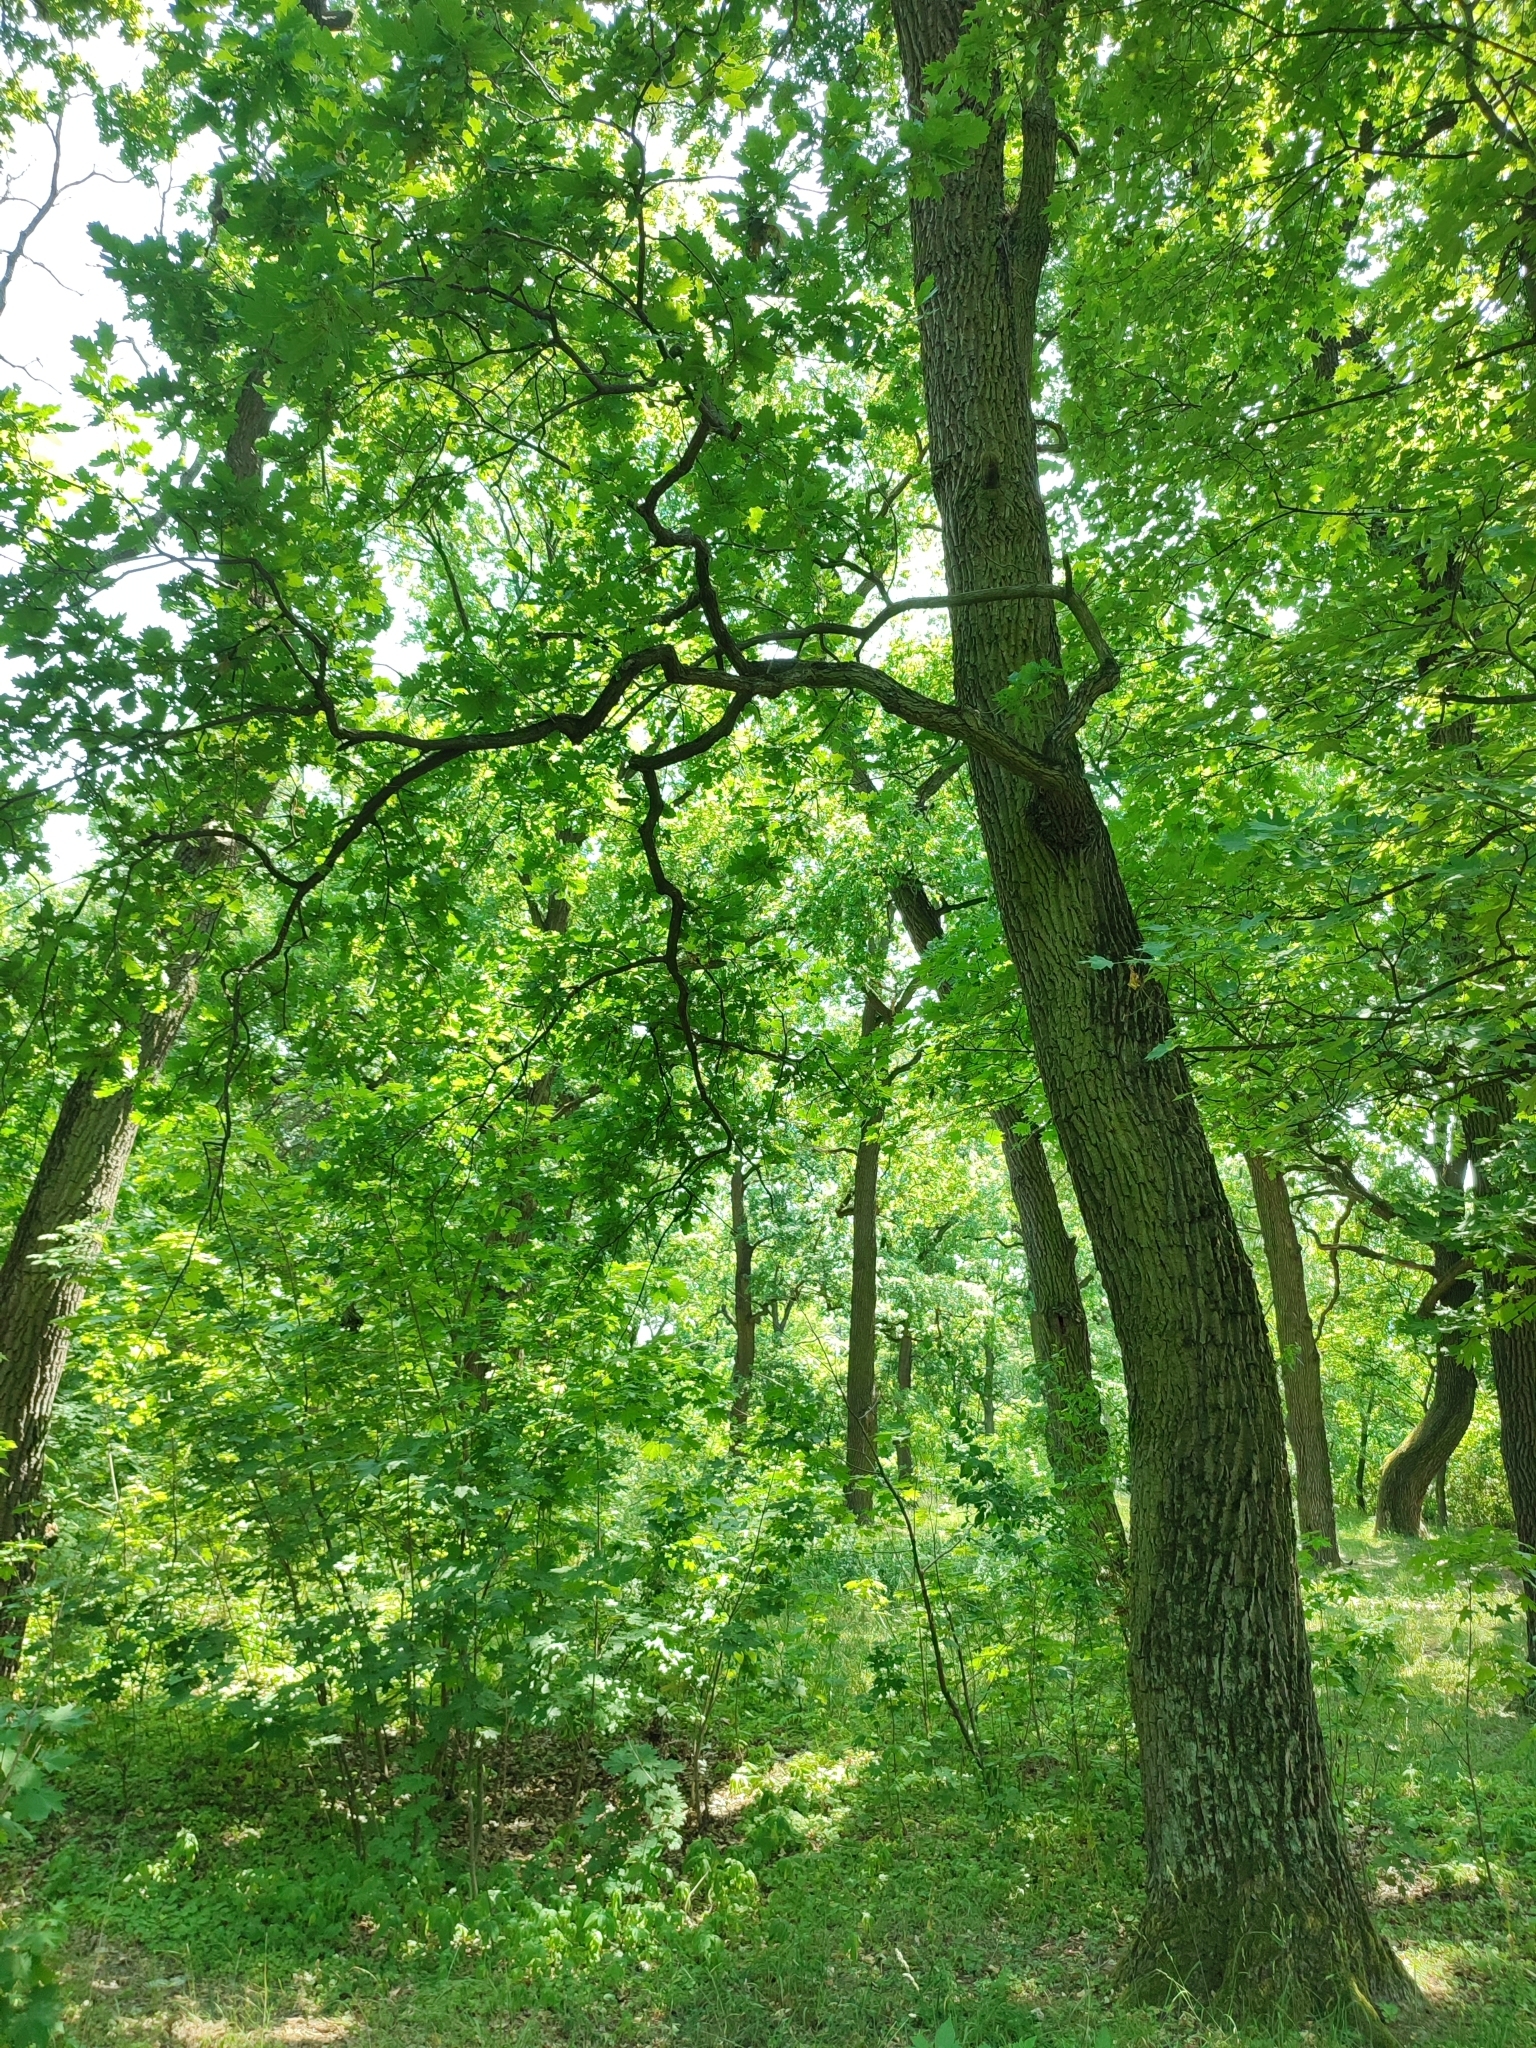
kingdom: Plantae
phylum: Tracheophyta
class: Magnoliopsida
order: Fagales
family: Fagaceae
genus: Quercus
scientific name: Quercus robur
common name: Pedunculate oak
